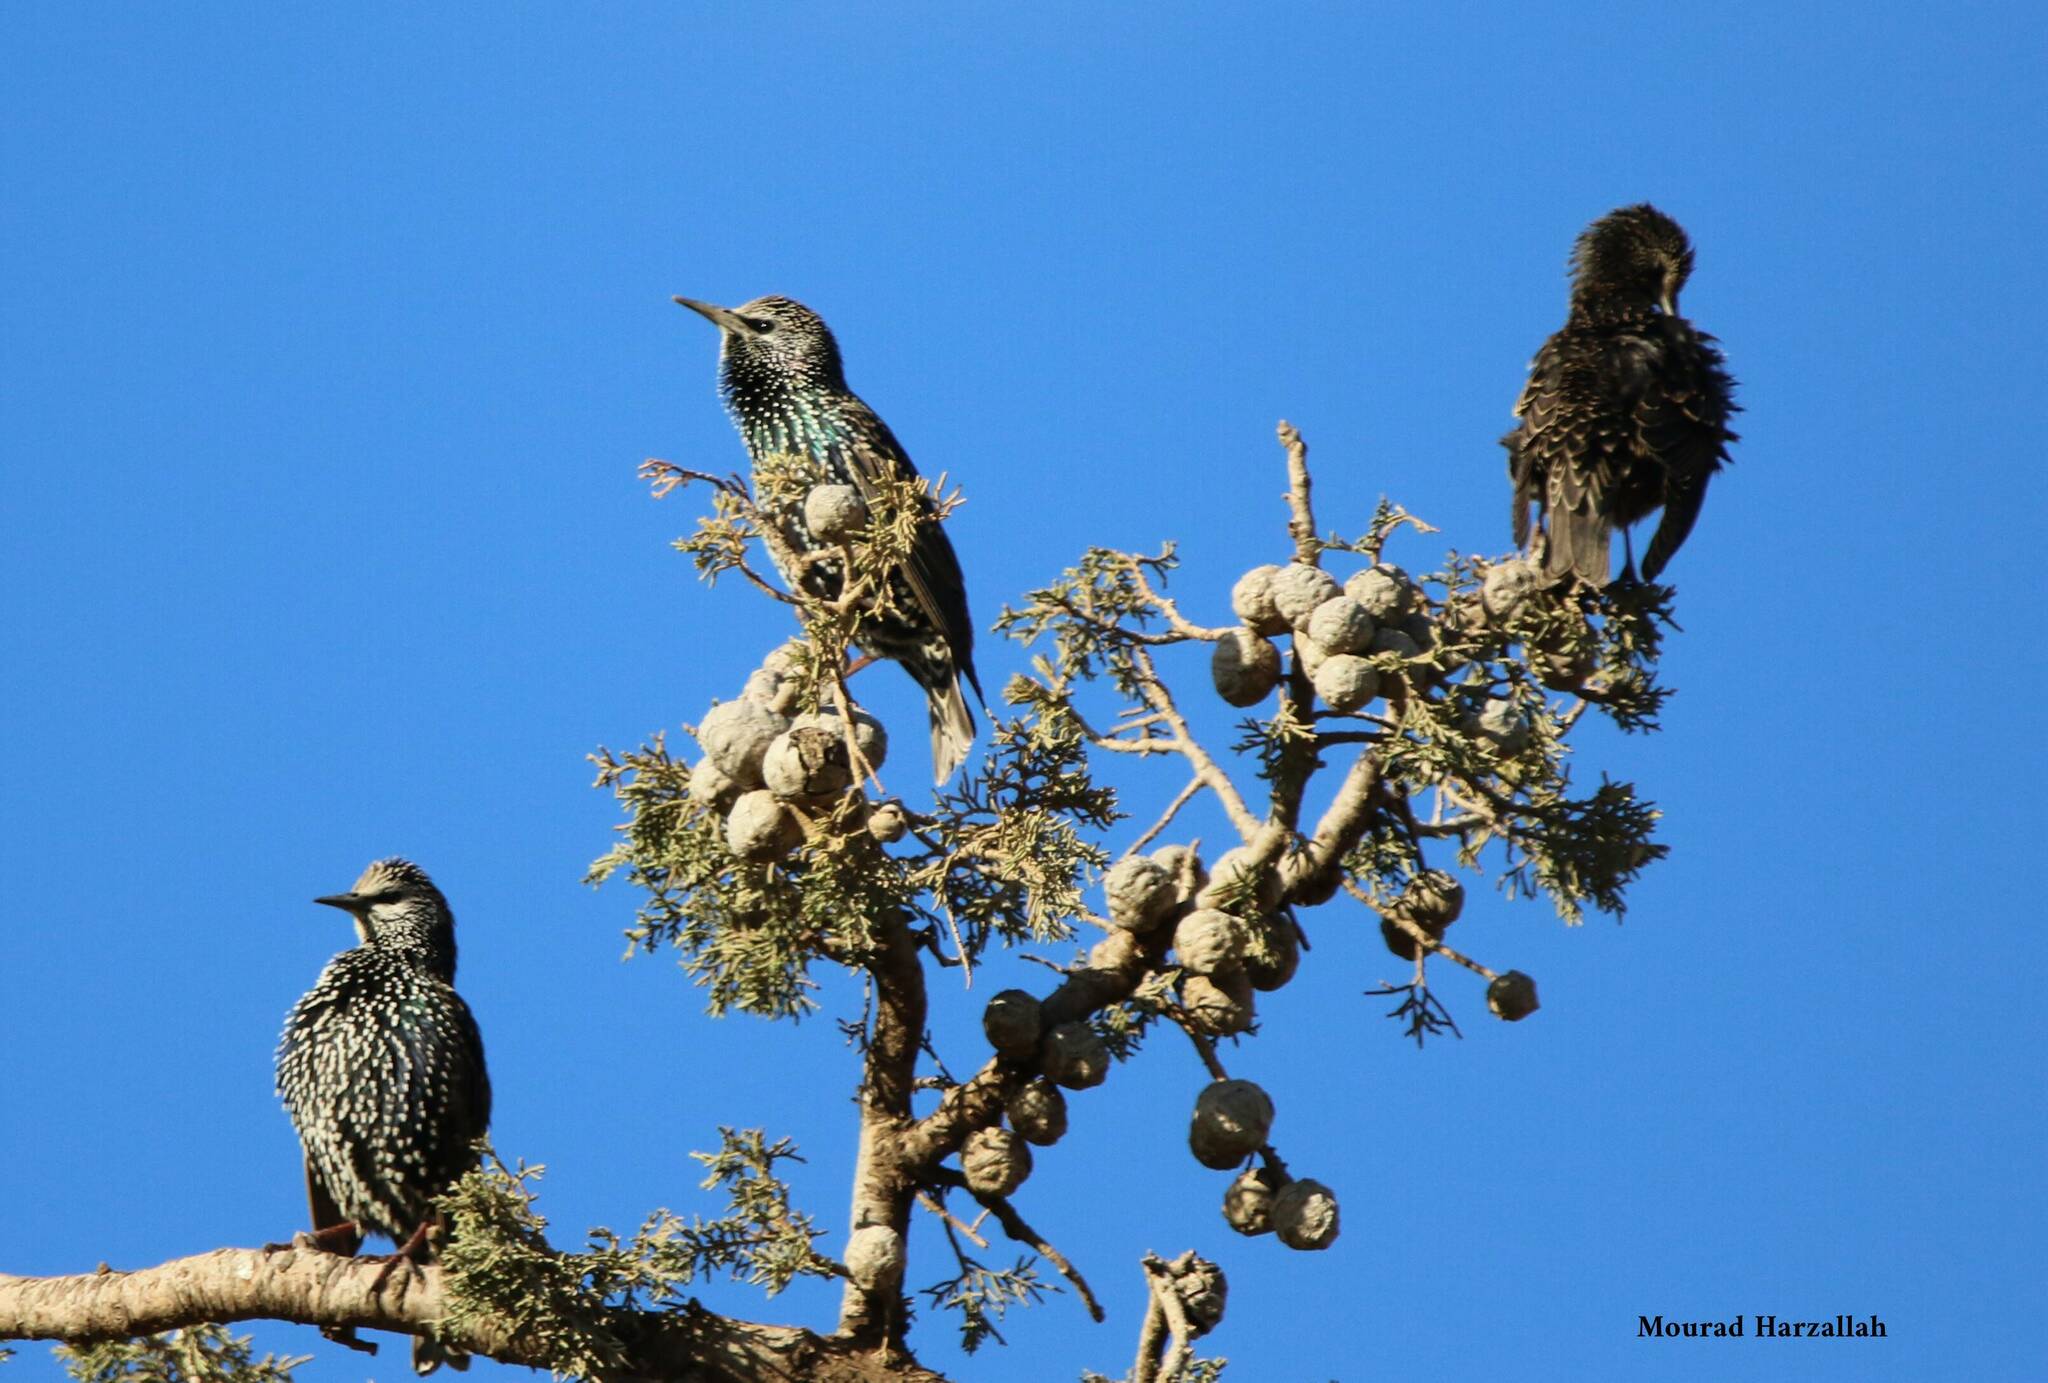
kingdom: Animalia
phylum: Chordata
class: Aves
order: Passeriformes
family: Sturnidae
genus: Sturnus
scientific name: Sturnus vulgaris
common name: Common starling
